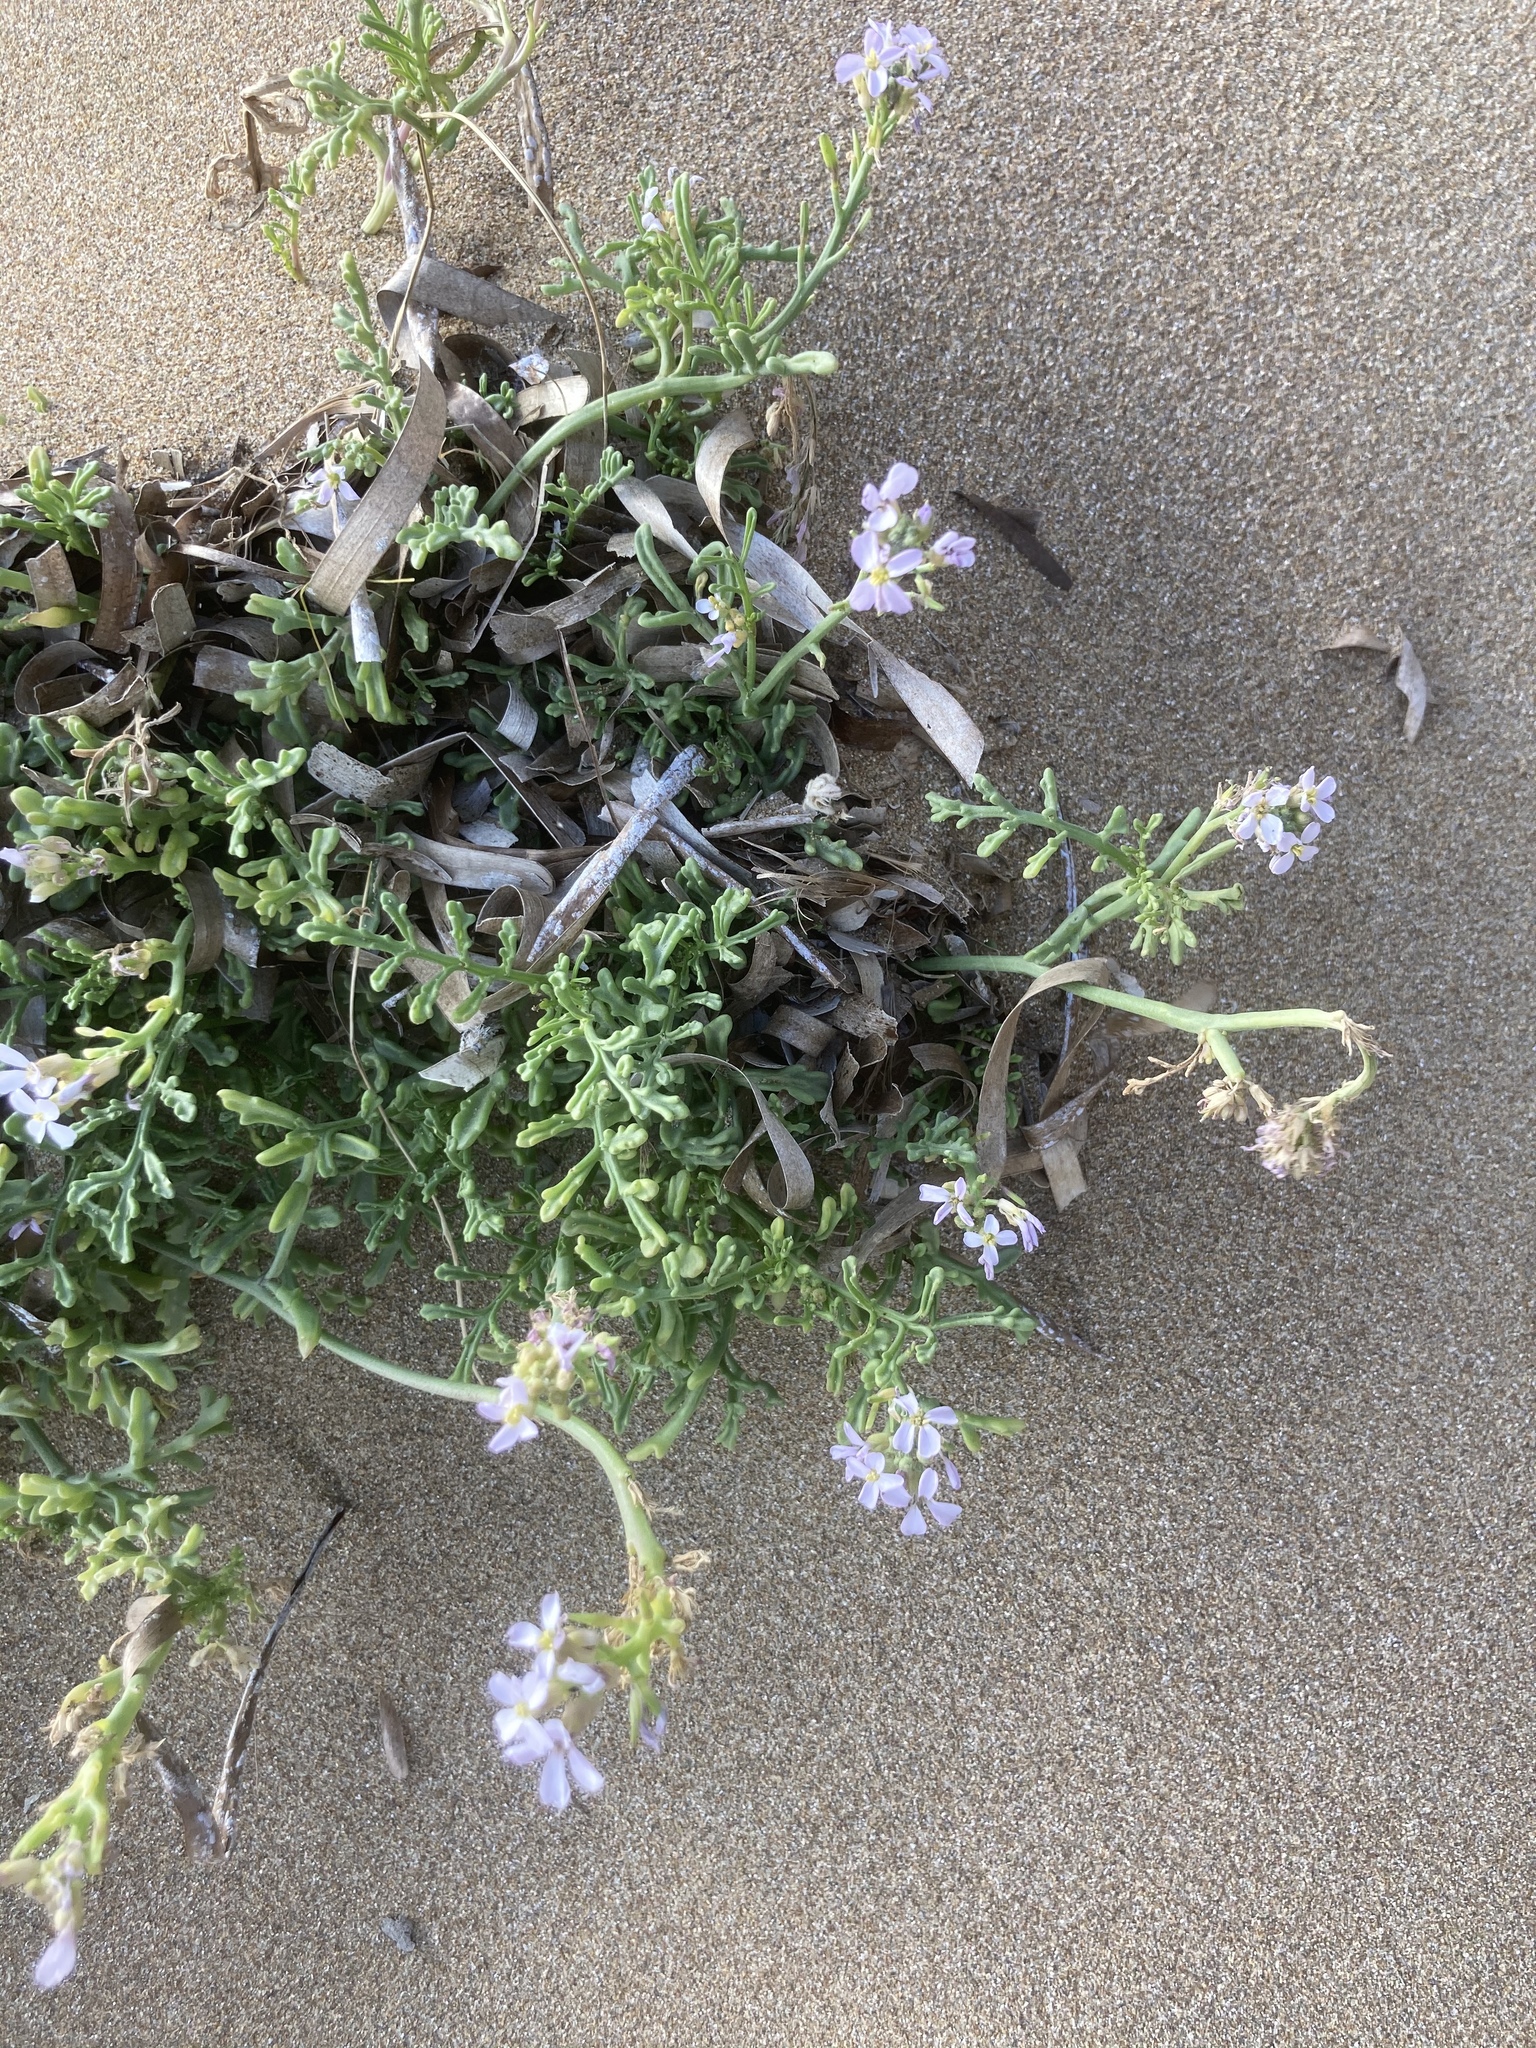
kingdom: Plantae
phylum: Tracheophyta
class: Magnoliopsida
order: Brassicales
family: Brassicaceae
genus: Cakile
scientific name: Cakile maritima
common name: Sea rocket
